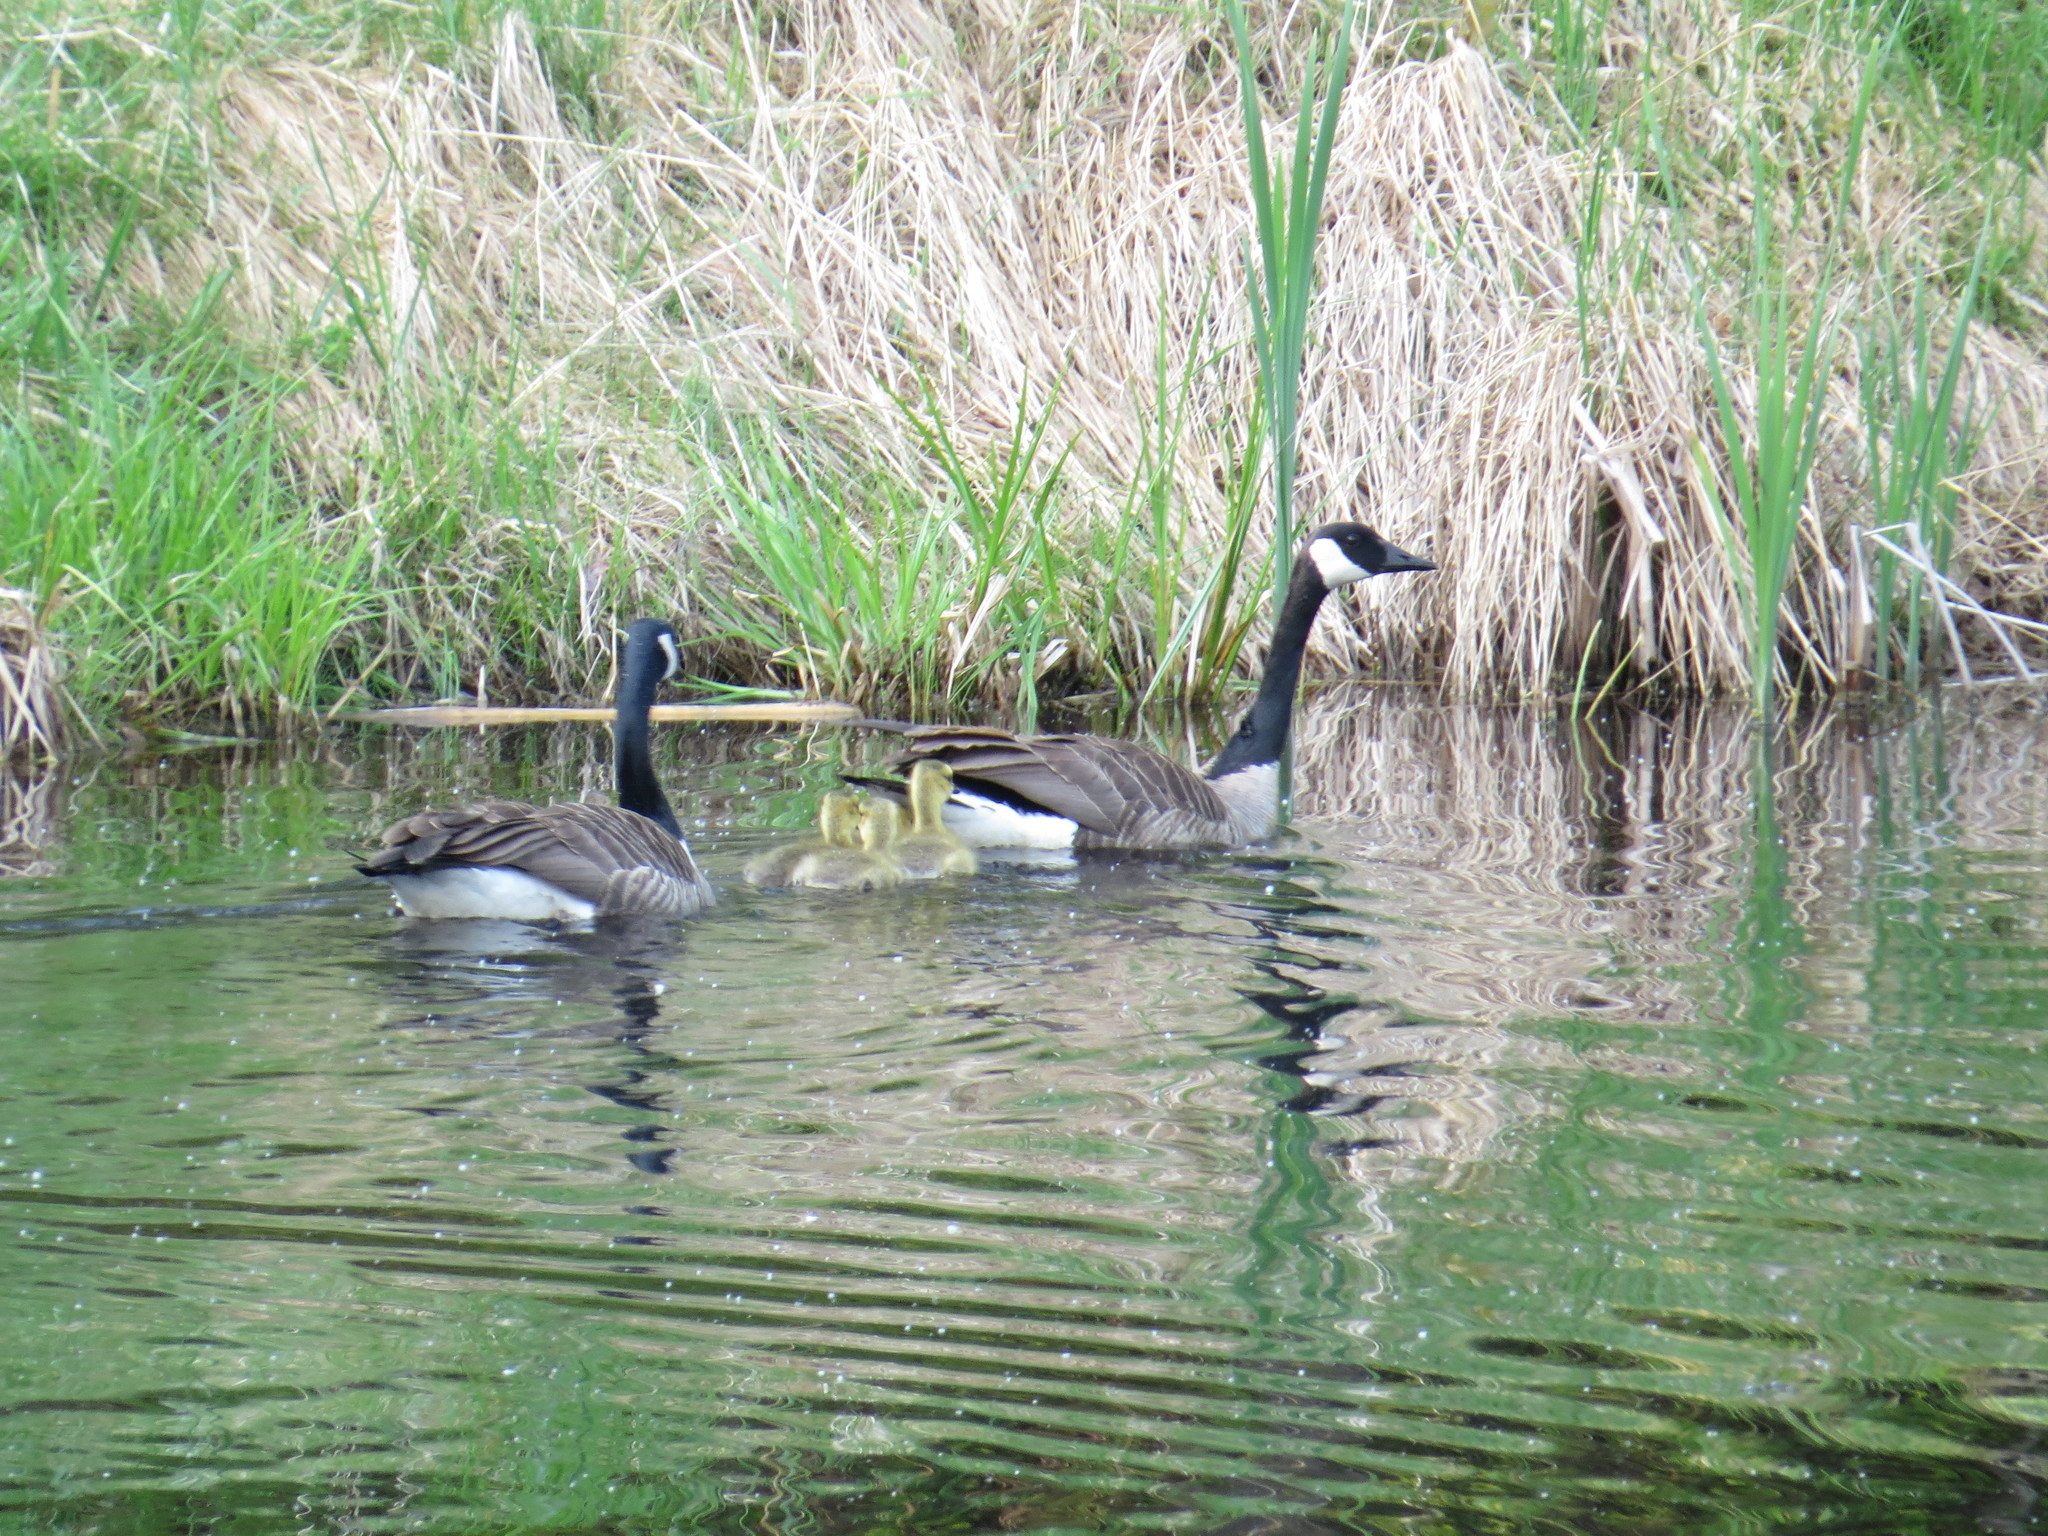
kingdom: Animalia
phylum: Chordata
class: Aves
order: Anseriformes
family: Anatidae
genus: Branta
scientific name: Branta canadensis
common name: Canada goose
